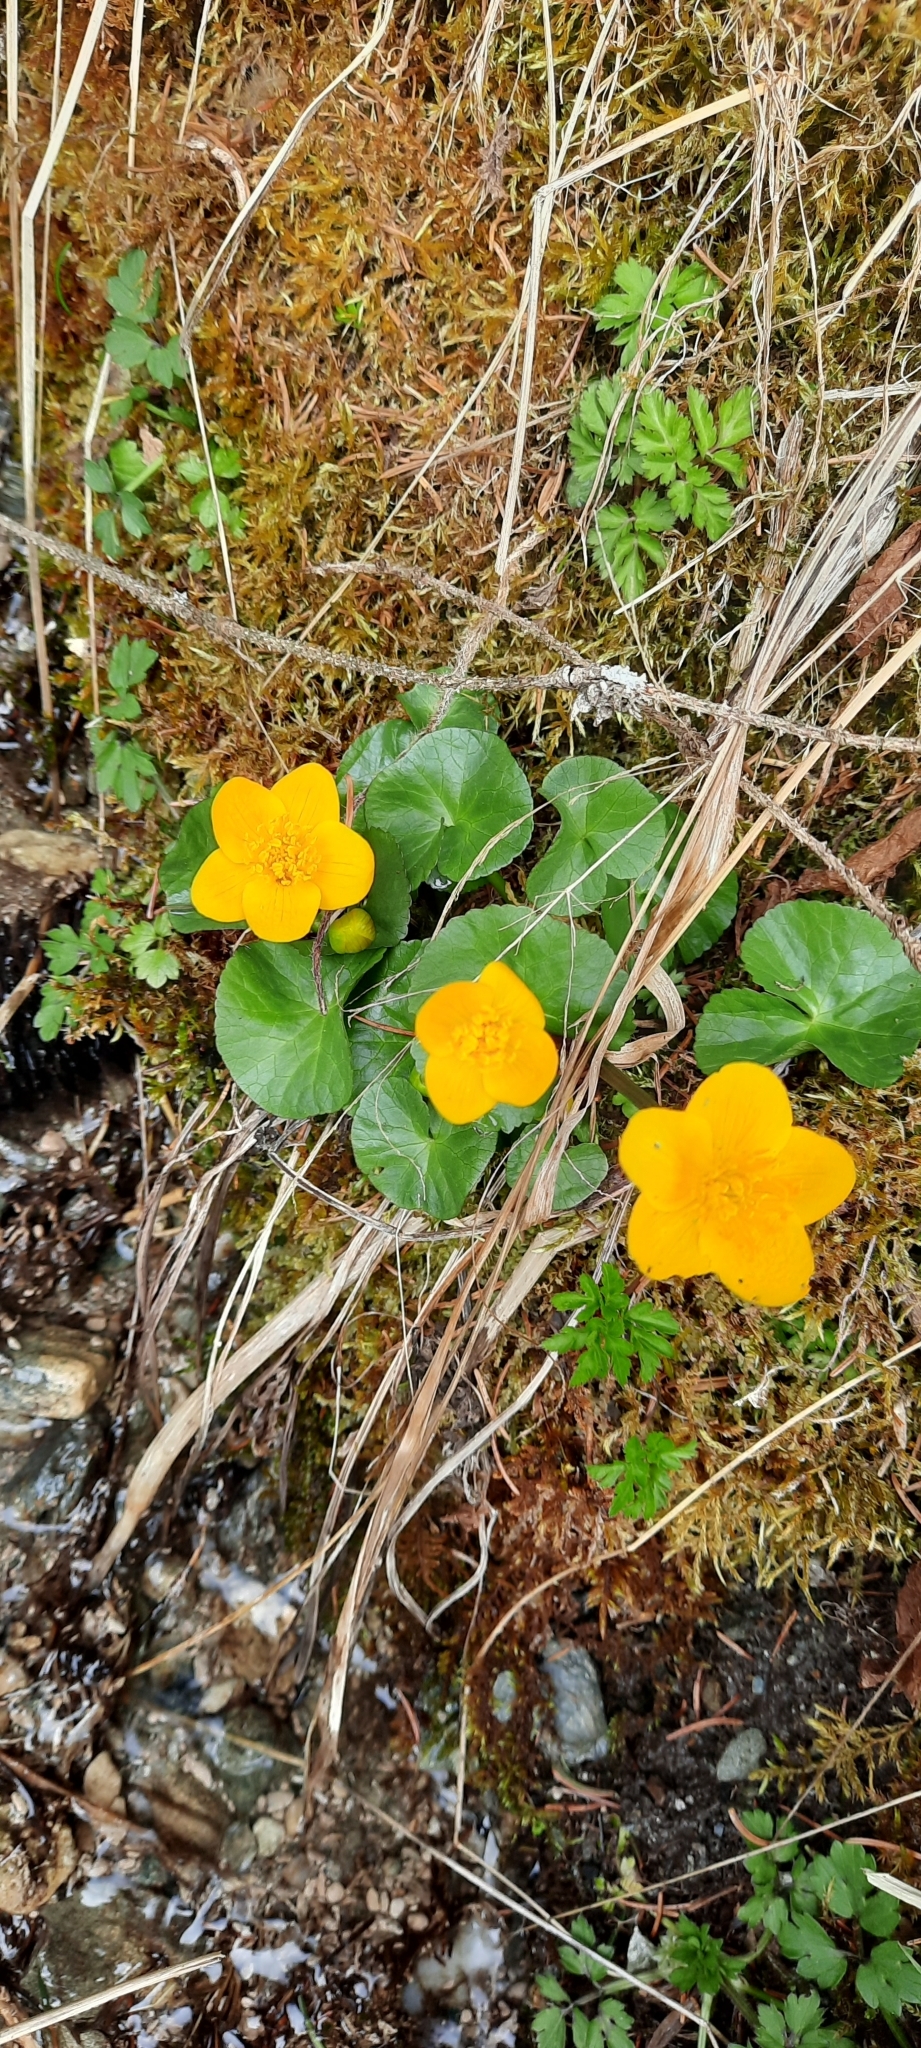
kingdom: Plantae
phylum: Tracheophyta
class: Magnoliopsida
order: Ranunculales
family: Ranunculaceae
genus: Caltha
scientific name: Caltha palustris
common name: Marsh marigold
